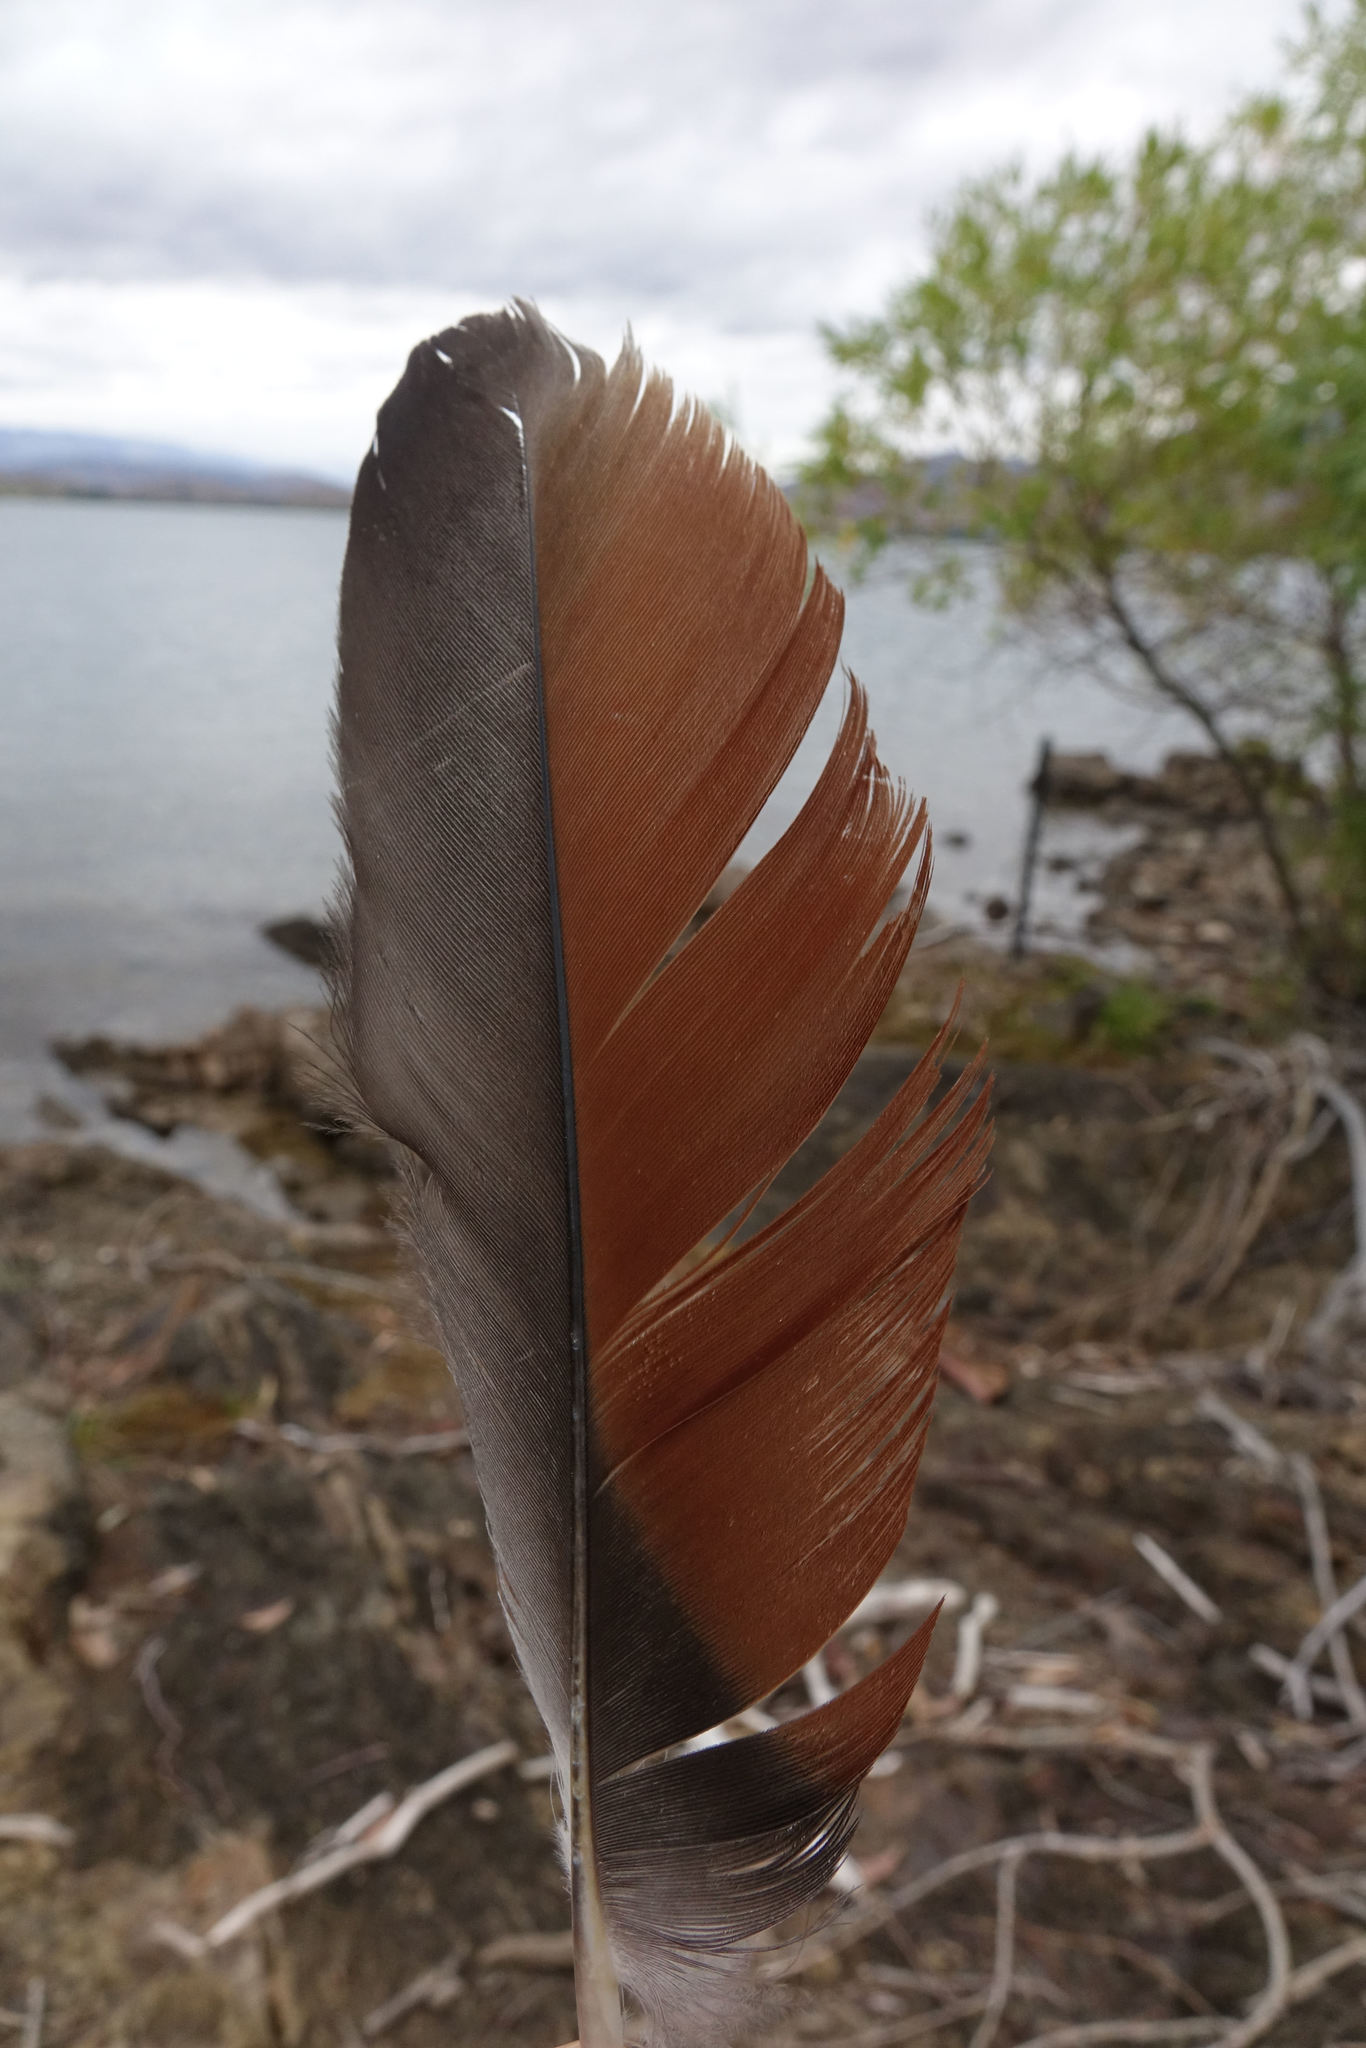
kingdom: Animalia
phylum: Chordata
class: Aves
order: Anseriformes
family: Anatidae
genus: Tadorna
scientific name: Tadorna variegata
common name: Paradise shelduck
